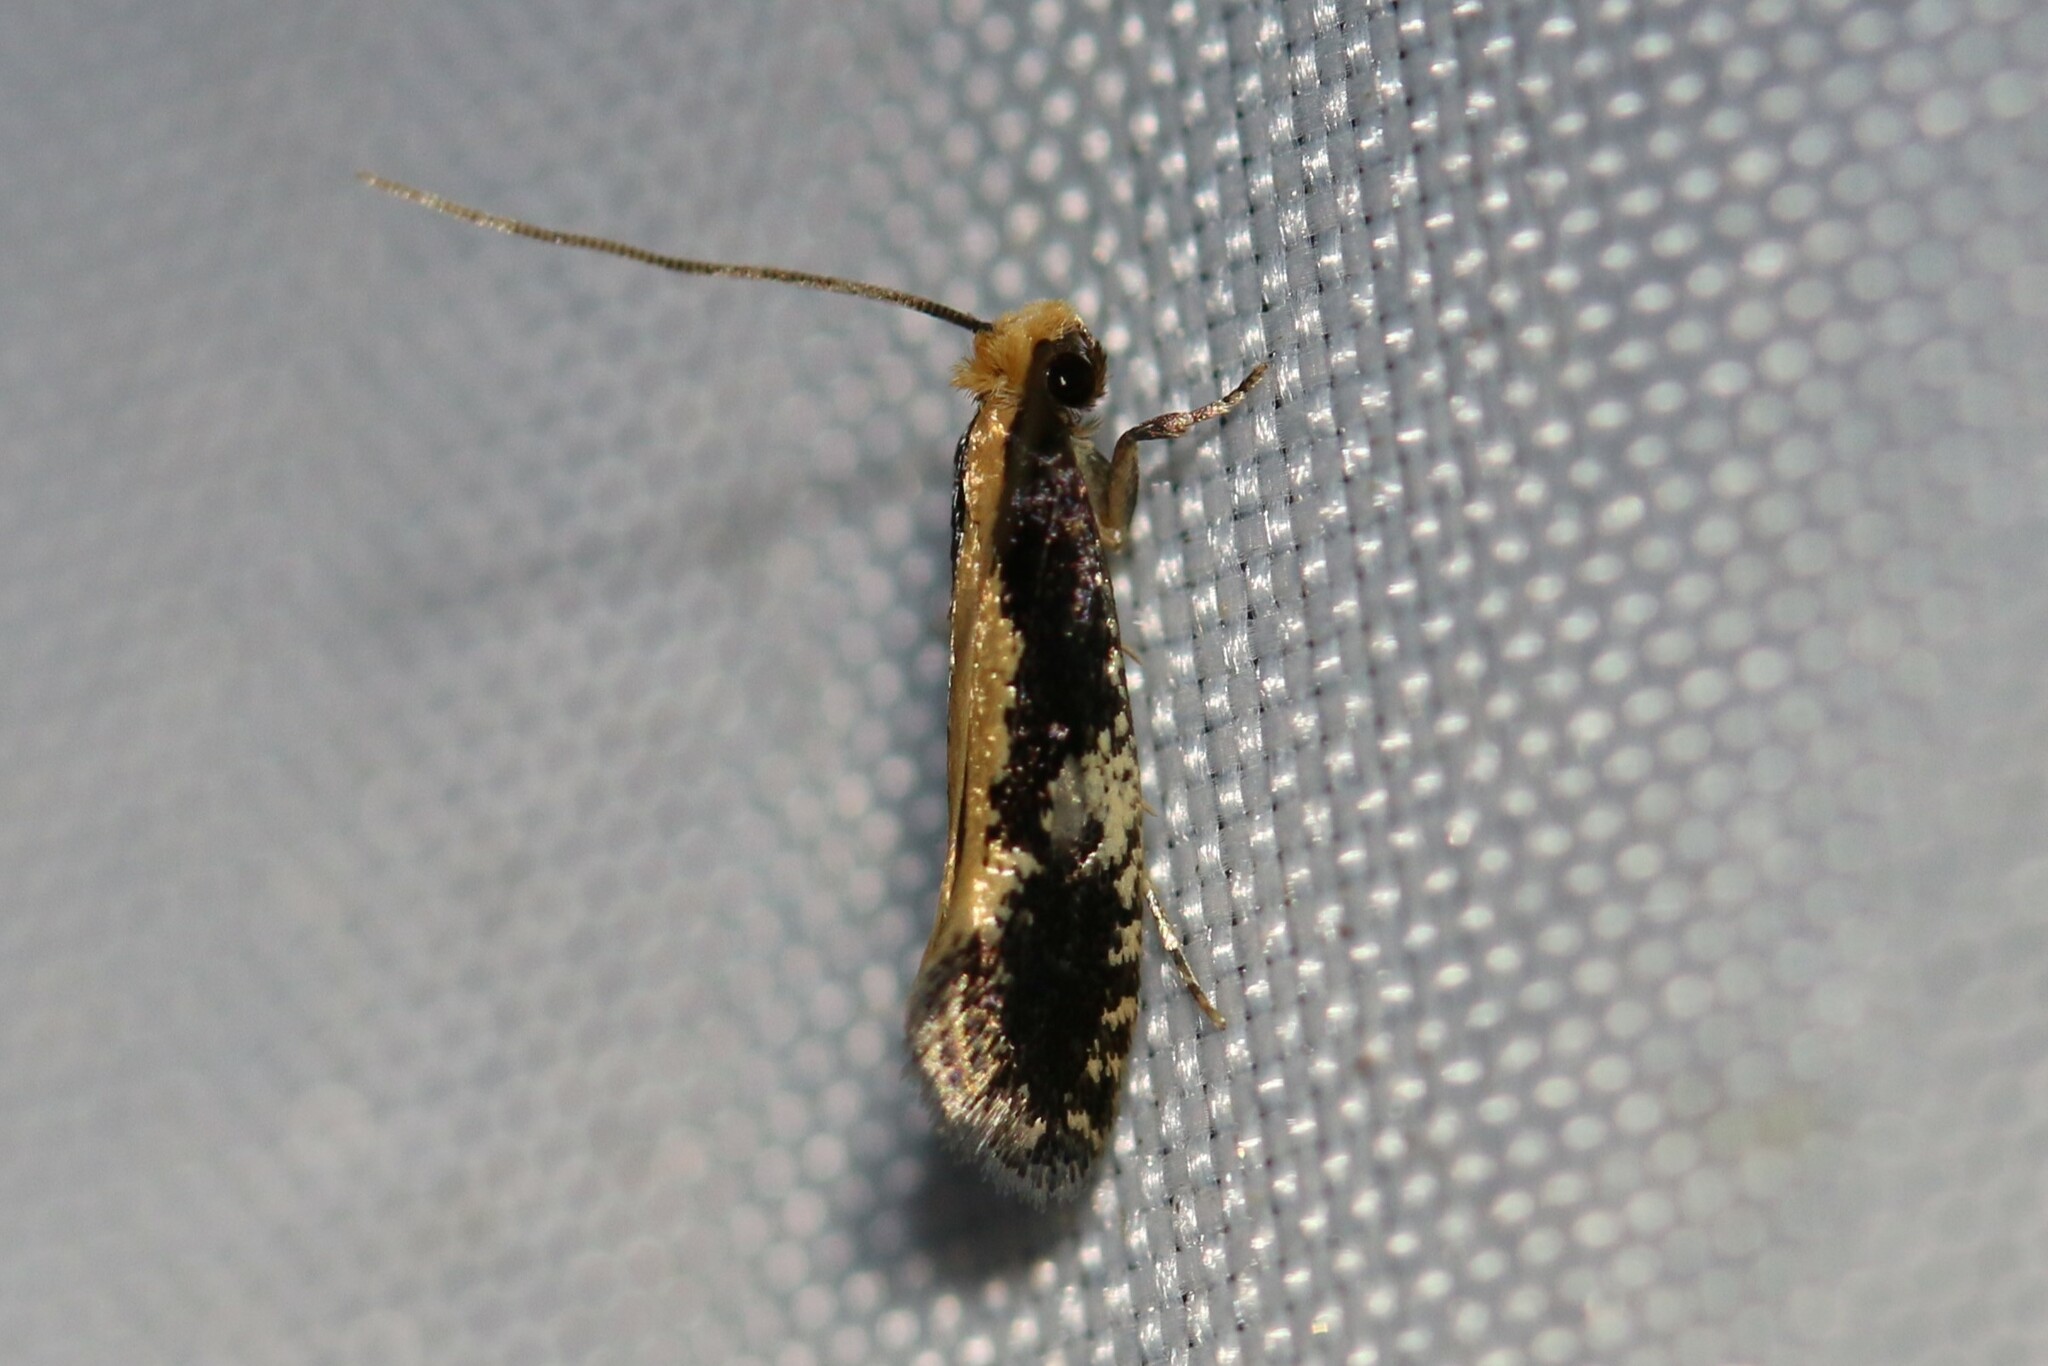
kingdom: Animalia
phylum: Arthropoda
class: Insecta
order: Lepidoptera
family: Tineidae
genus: Monopis
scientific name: Monopis obviella
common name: Tineid moth
